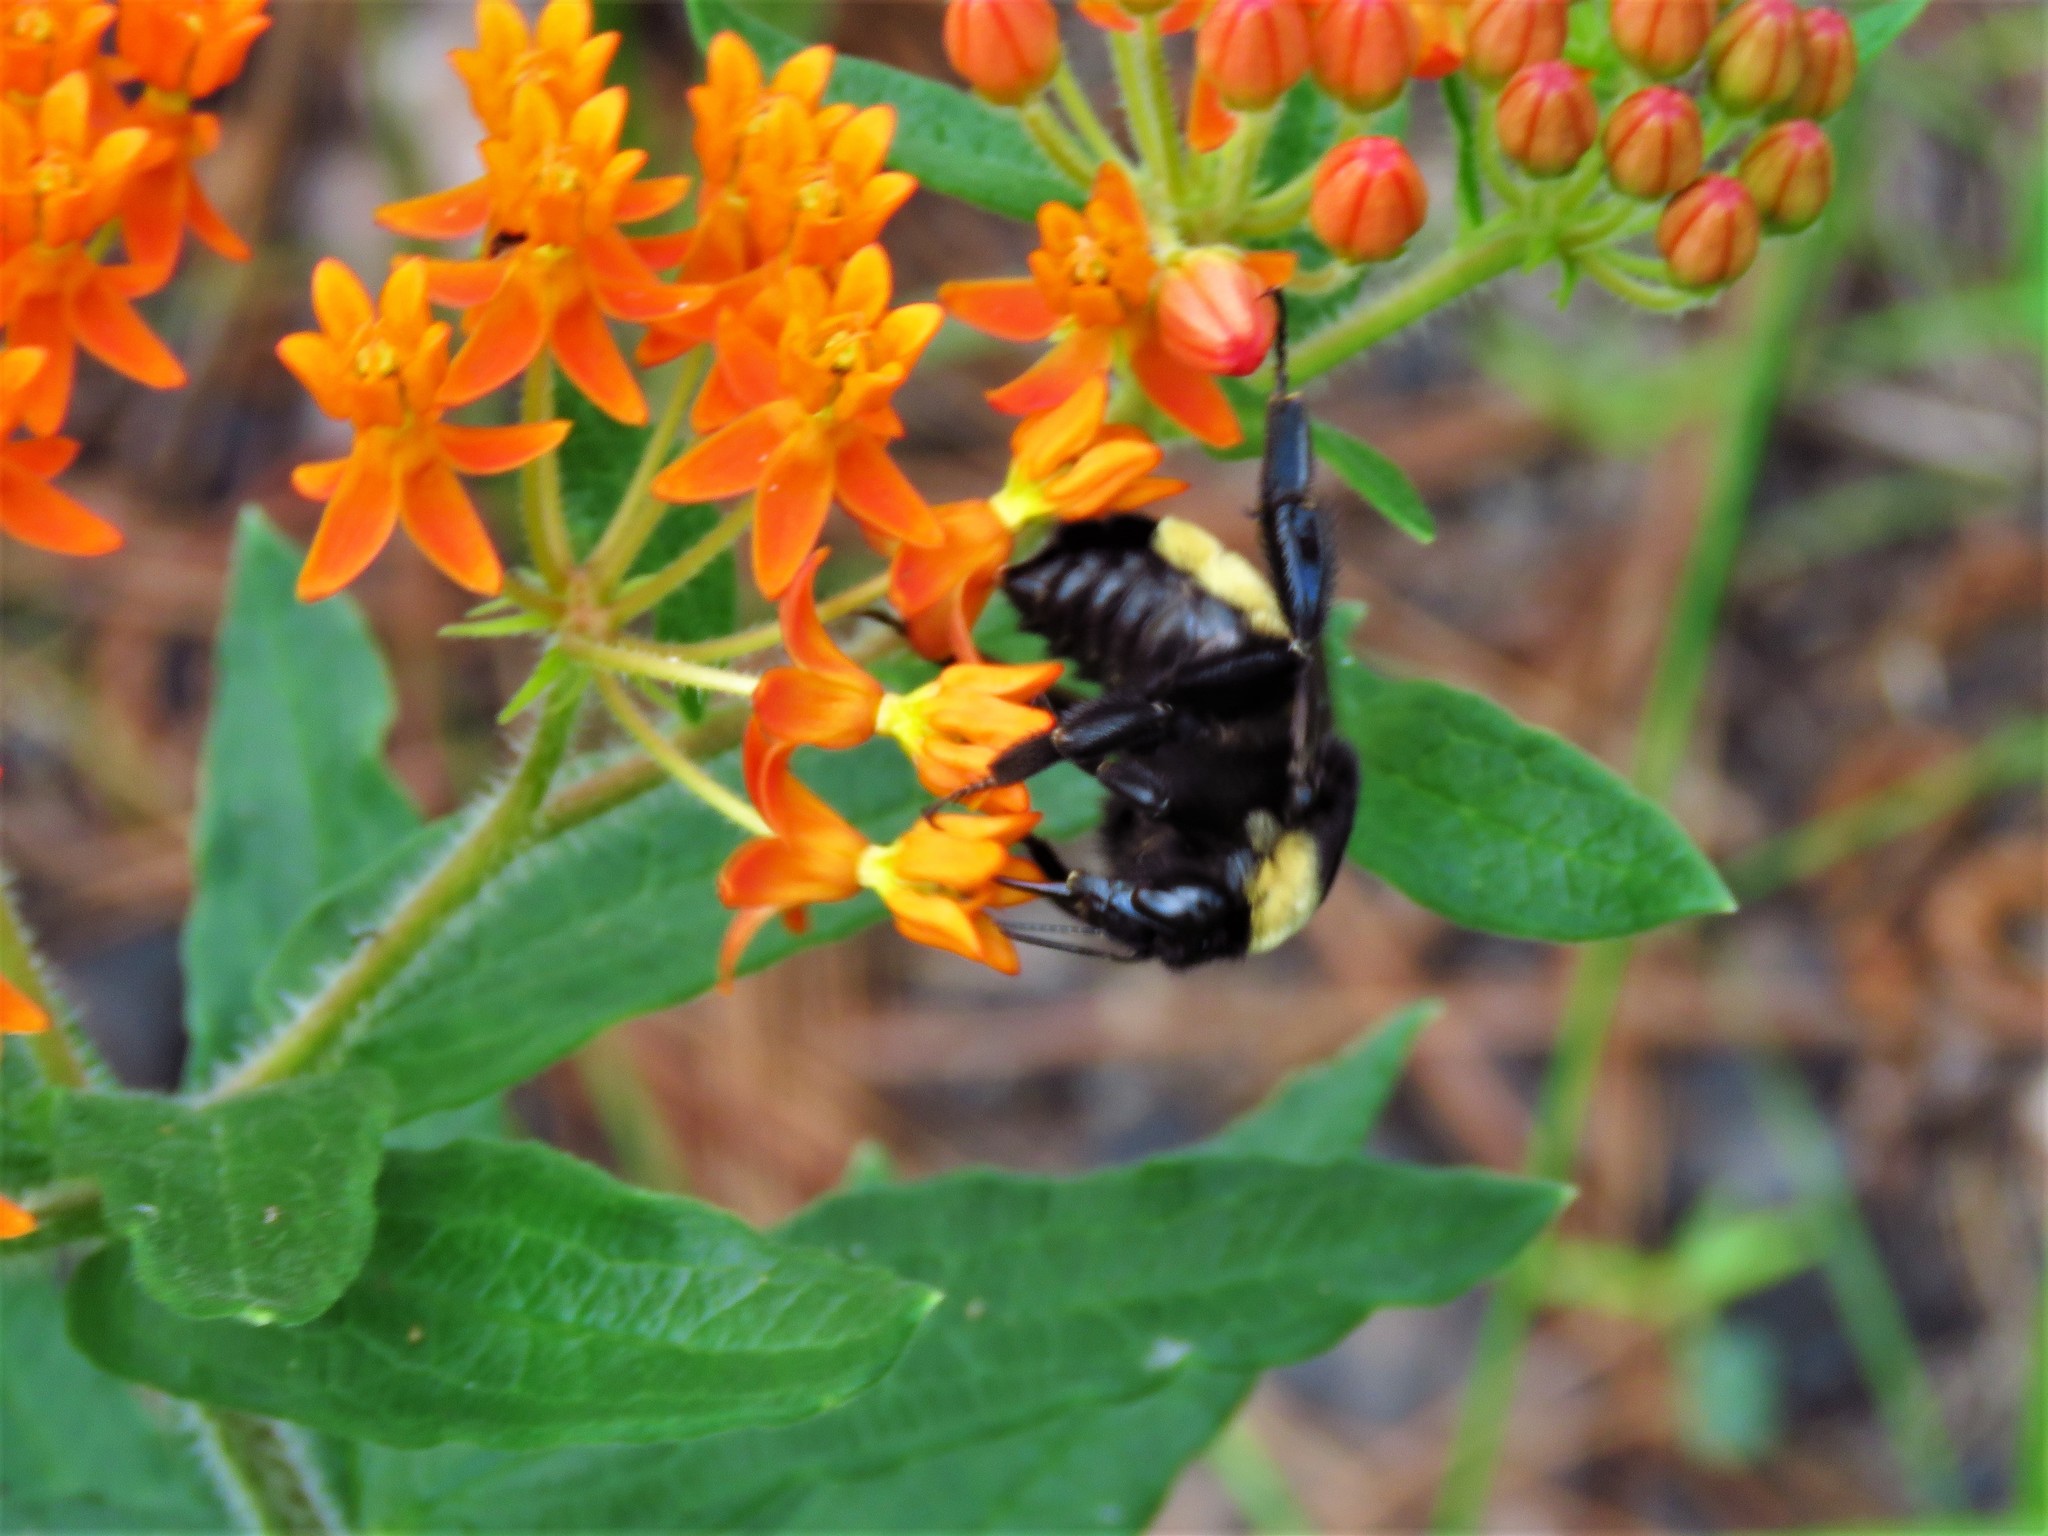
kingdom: Animalia
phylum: Arthropoda
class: Insecta
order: Hymenoptera
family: Apidae
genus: Bombus
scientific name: Bombus pensylvanicus
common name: Bumble bee
